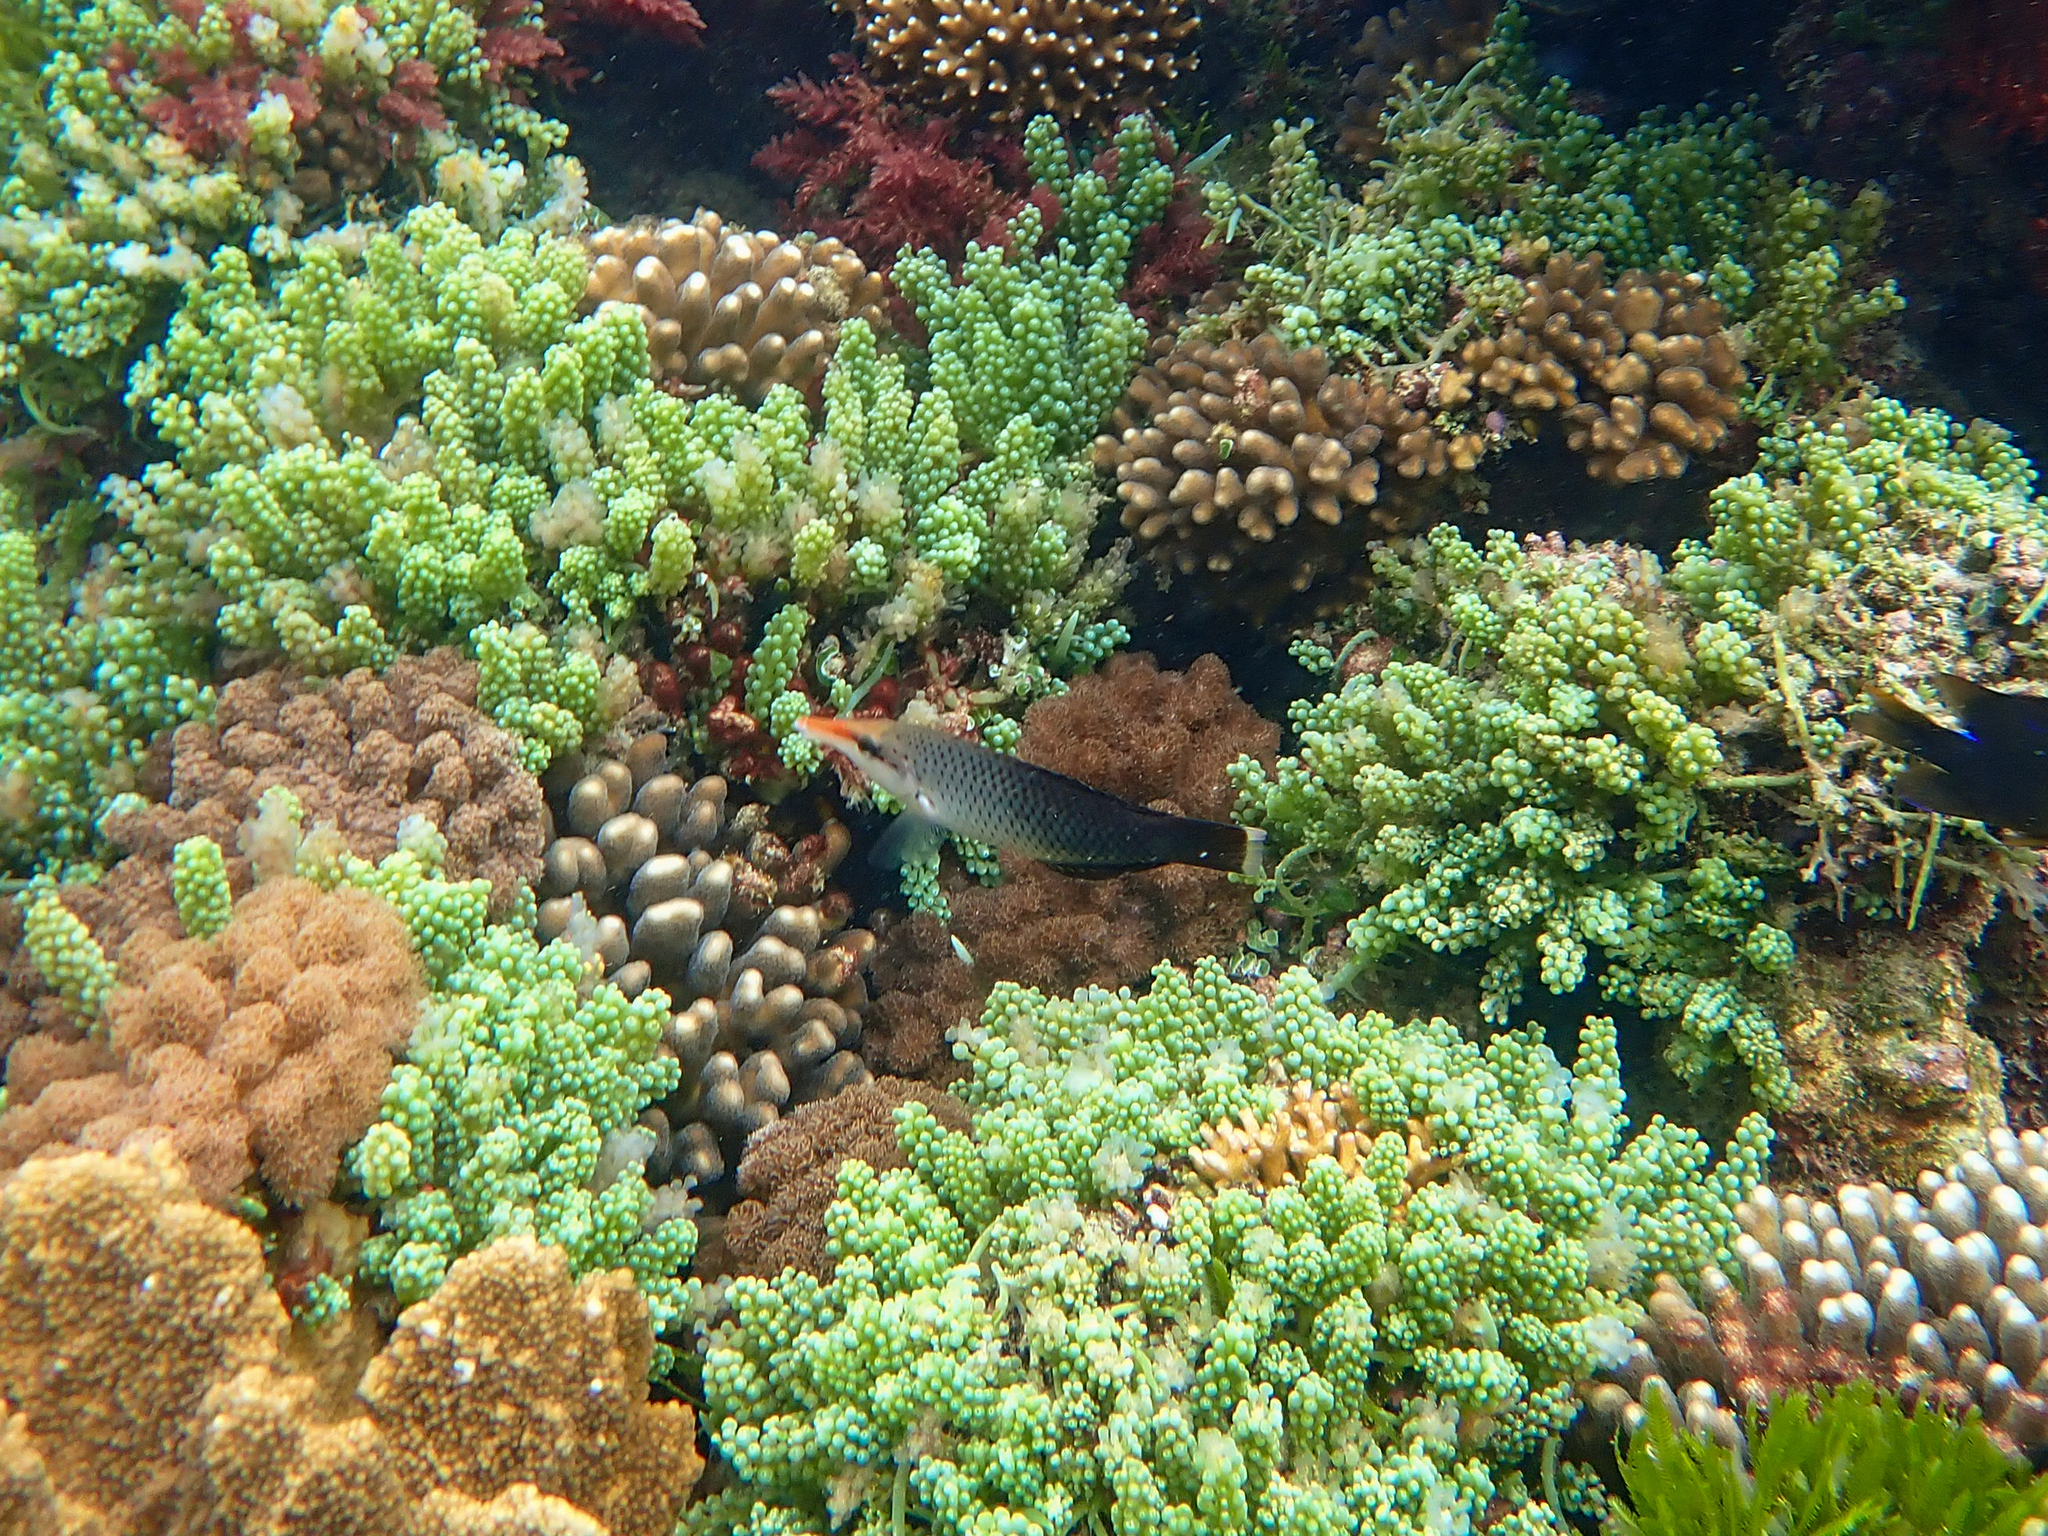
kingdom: Animalia
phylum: Chordata
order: Perciformes
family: Labridae
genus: Gomphosus
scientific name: Gomphosus varius
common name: Bird wrasse
